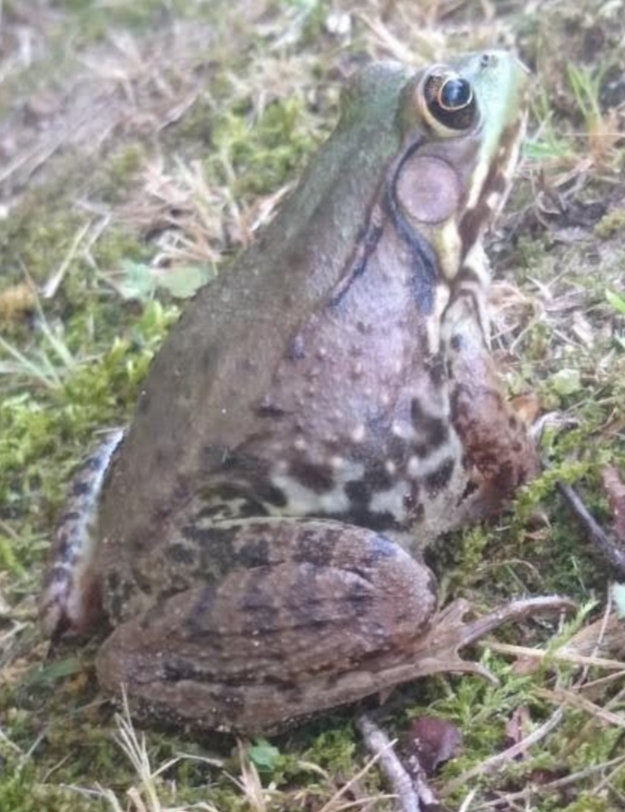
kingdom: Animalia
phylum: Chordata
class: Amphibia
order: Anura
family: Ranidae
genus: Lithobates
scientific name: Lithobates clamitans
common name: Green frog
